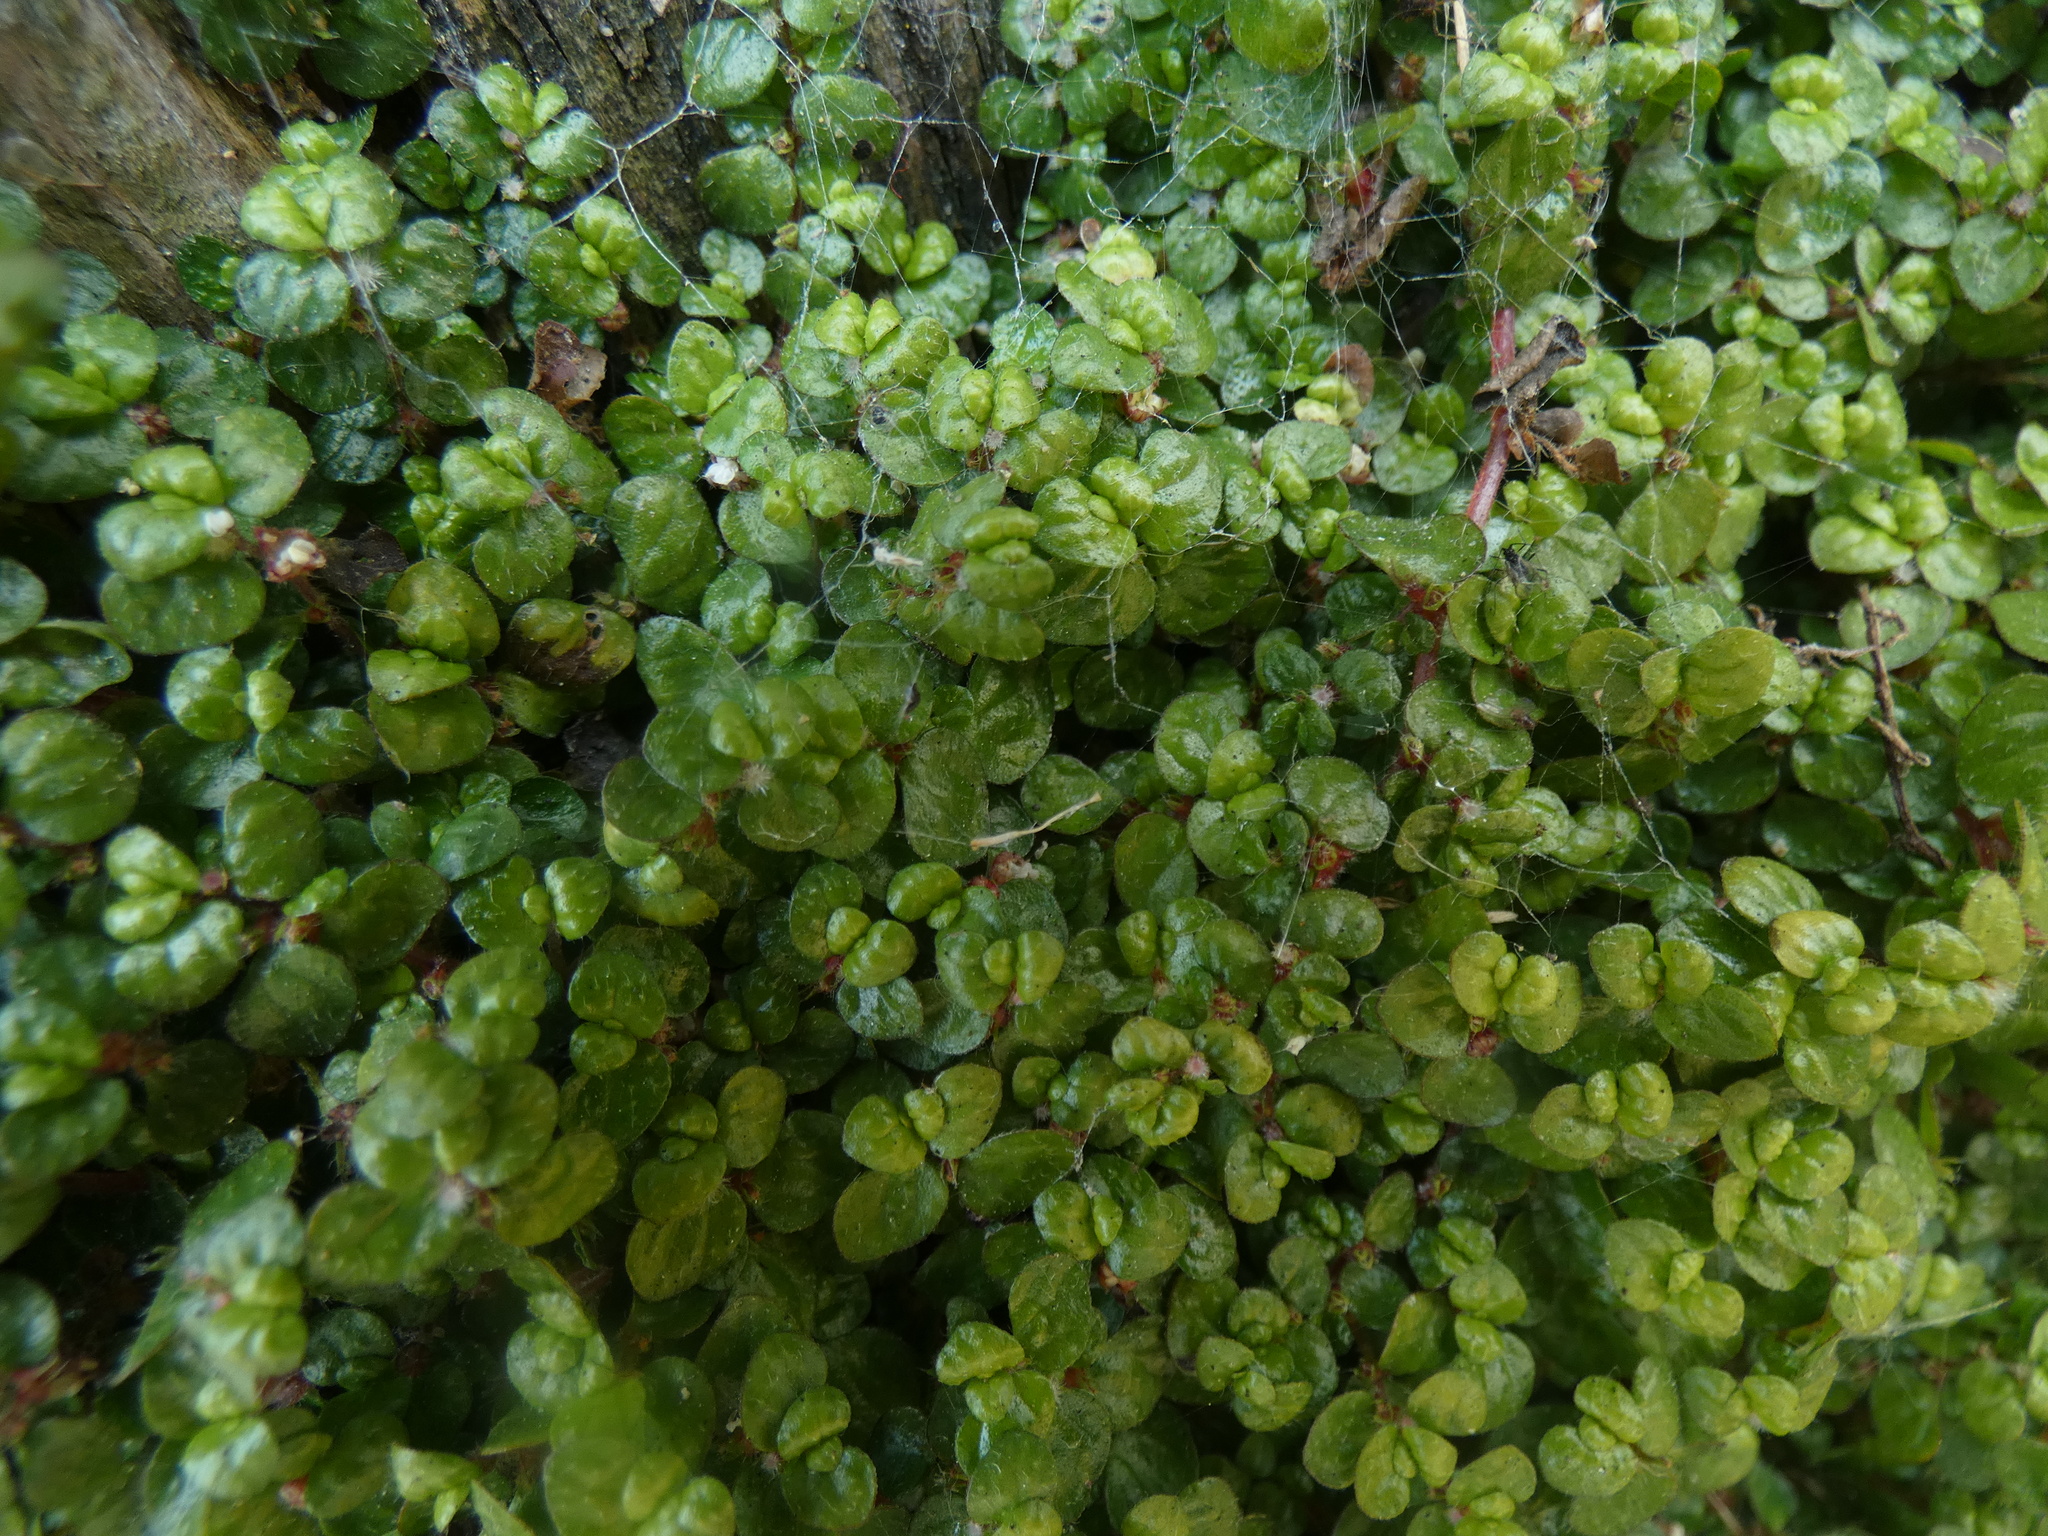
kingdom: Plantae
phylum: Tracheophyta
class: Magnoliopsida
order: Rosales
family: Urticaceae
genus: Soleirolia
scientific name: Soleirolia soleirolii
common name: Mind-your-own-business
